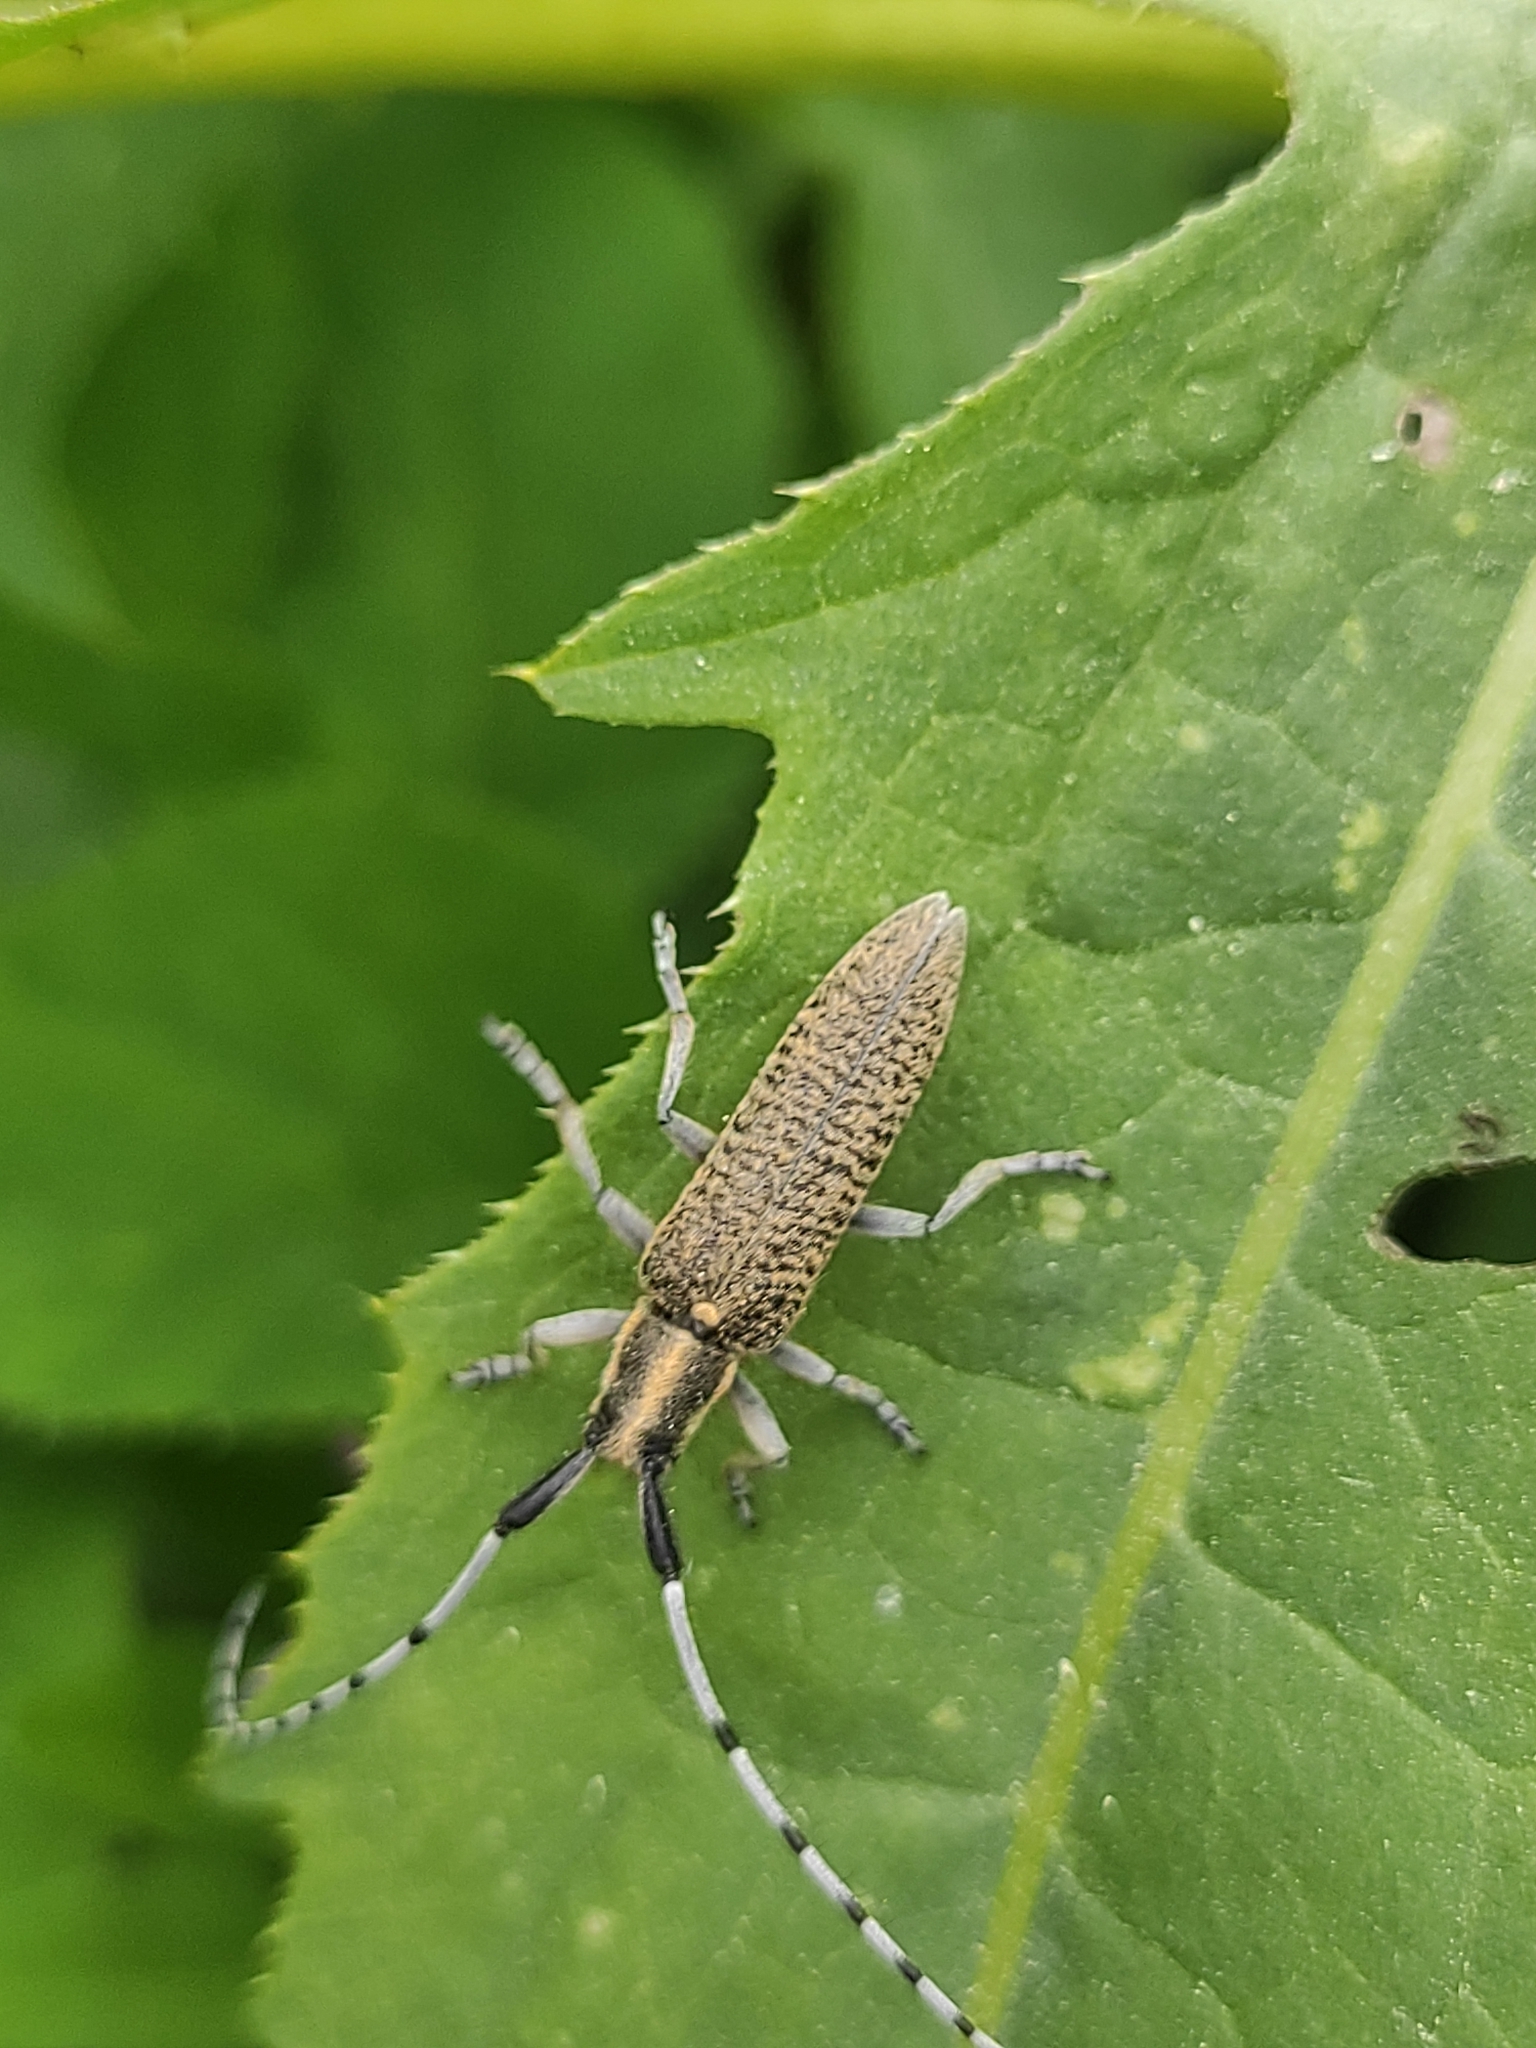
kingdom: Animalia
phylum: Arthropoda
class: Insecta
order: Coleoptera
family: Cerambycidae
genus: Agapanthia
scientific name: Agapanthia villosoviridescens
